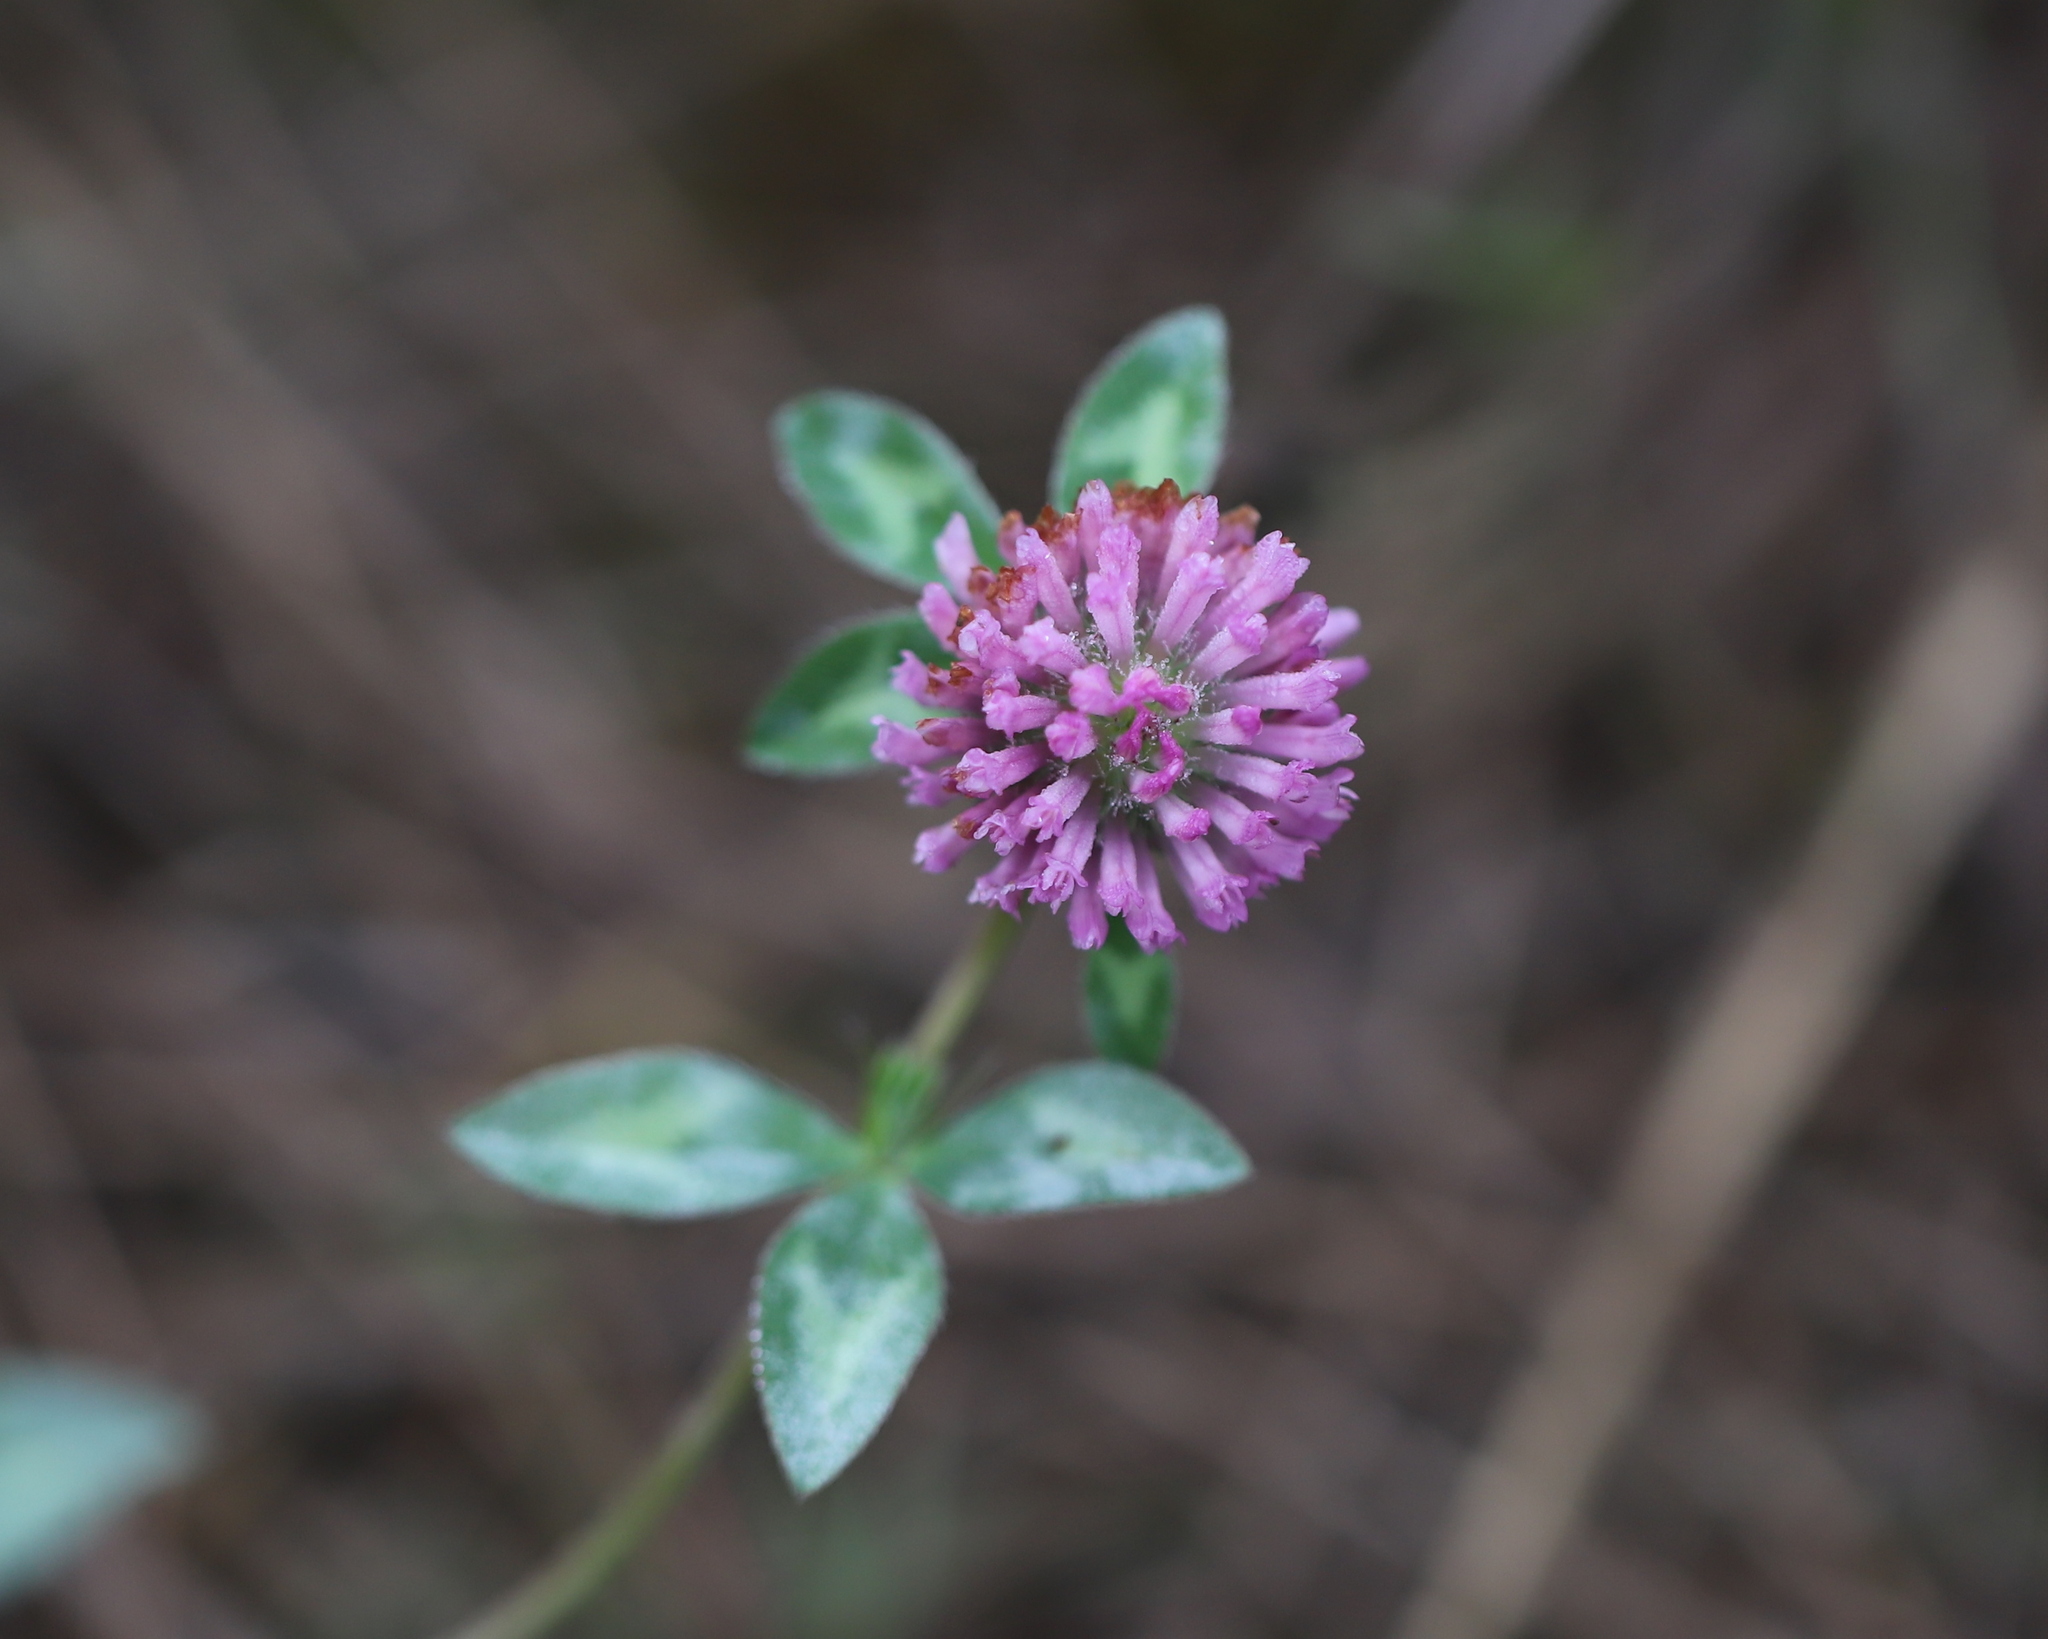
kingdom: Plantae
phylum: Tracheophyta
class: Magnoliopsida
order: Fabales
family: Fabaceae
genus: Trifolium
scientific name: Trifolium pratense
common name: Red clover
